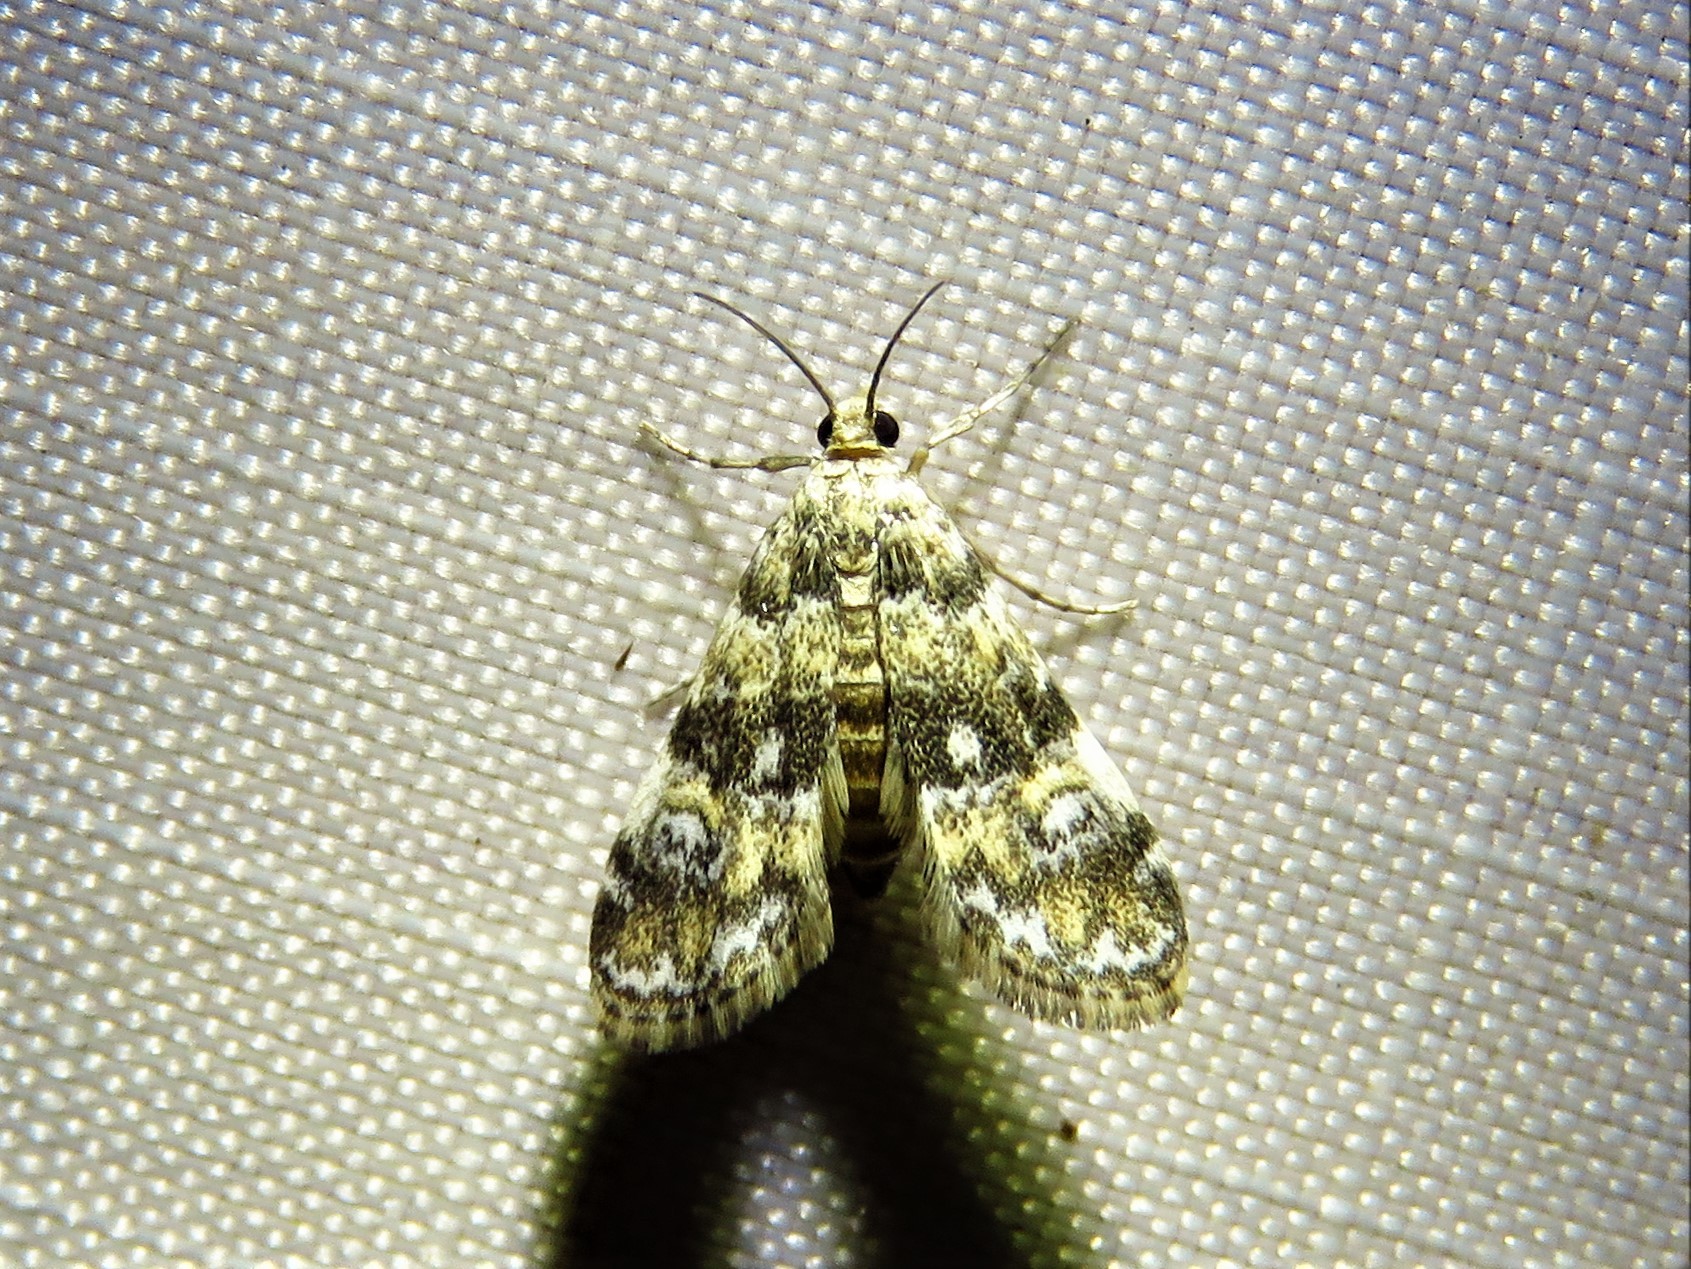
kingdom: Animalia
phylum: Arthropoda
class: Insecta
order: Lepidoptera
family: Crambidae
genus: Elophila
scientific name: Elophila obliteralis
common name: Waterlily leafcutter moth
